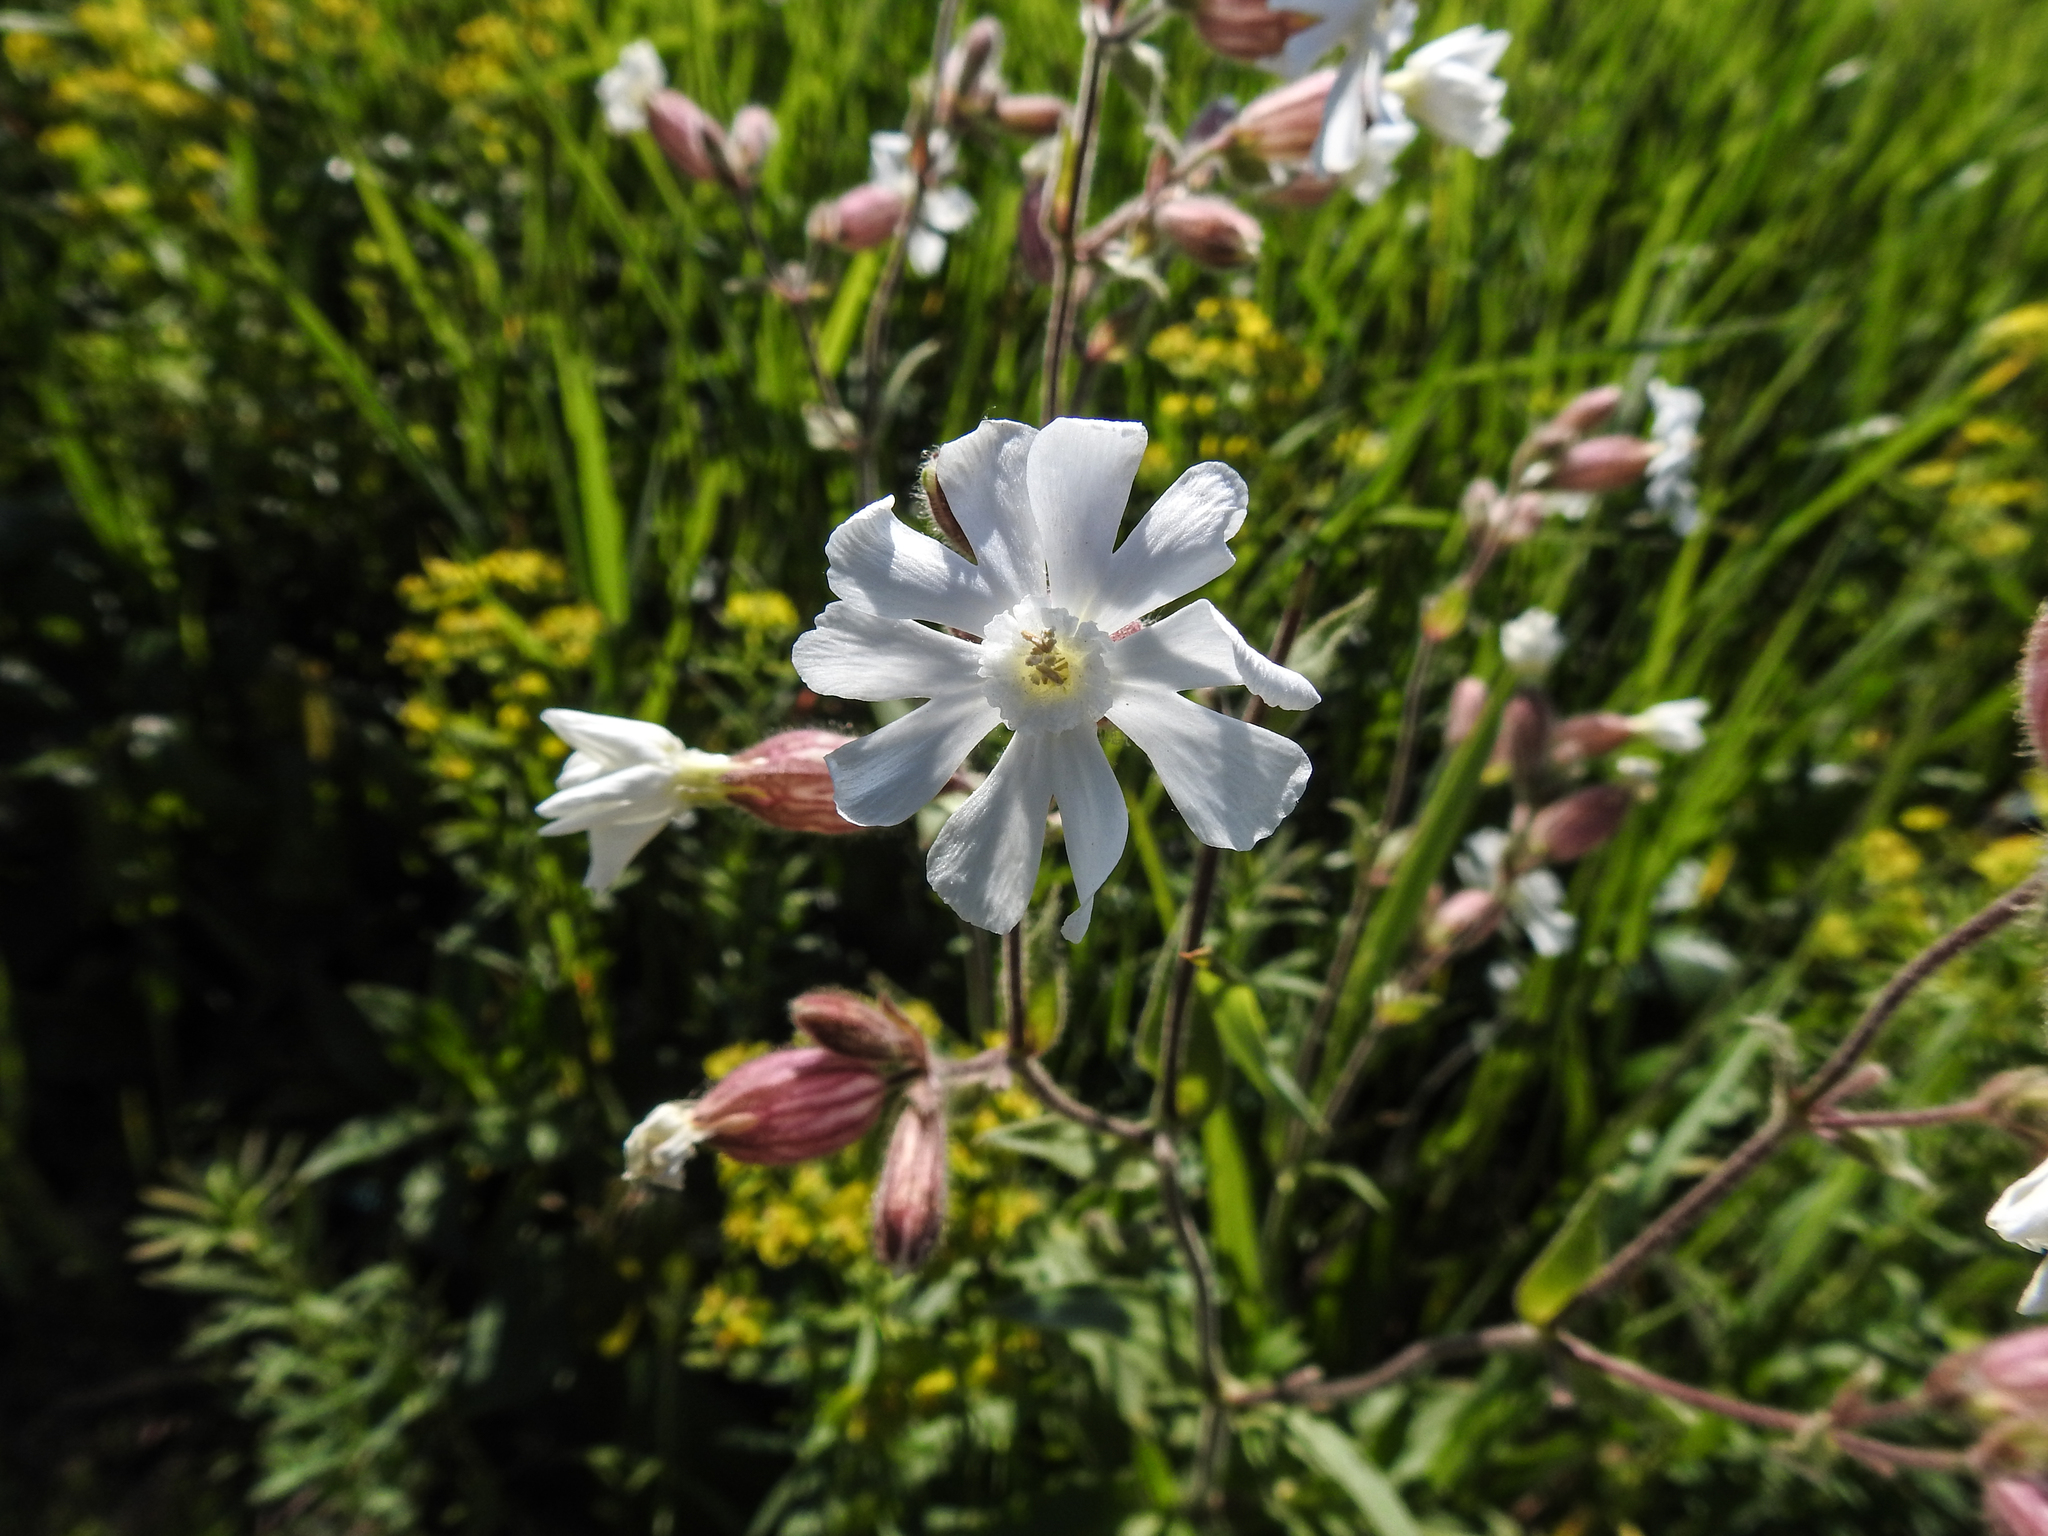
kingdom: Plantae
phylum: Tracheophyta
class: Magnoliopsida
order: Caryophyllales
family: Caryophyllaceae
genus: Silene
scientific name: Silene latifolia
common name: White campion
